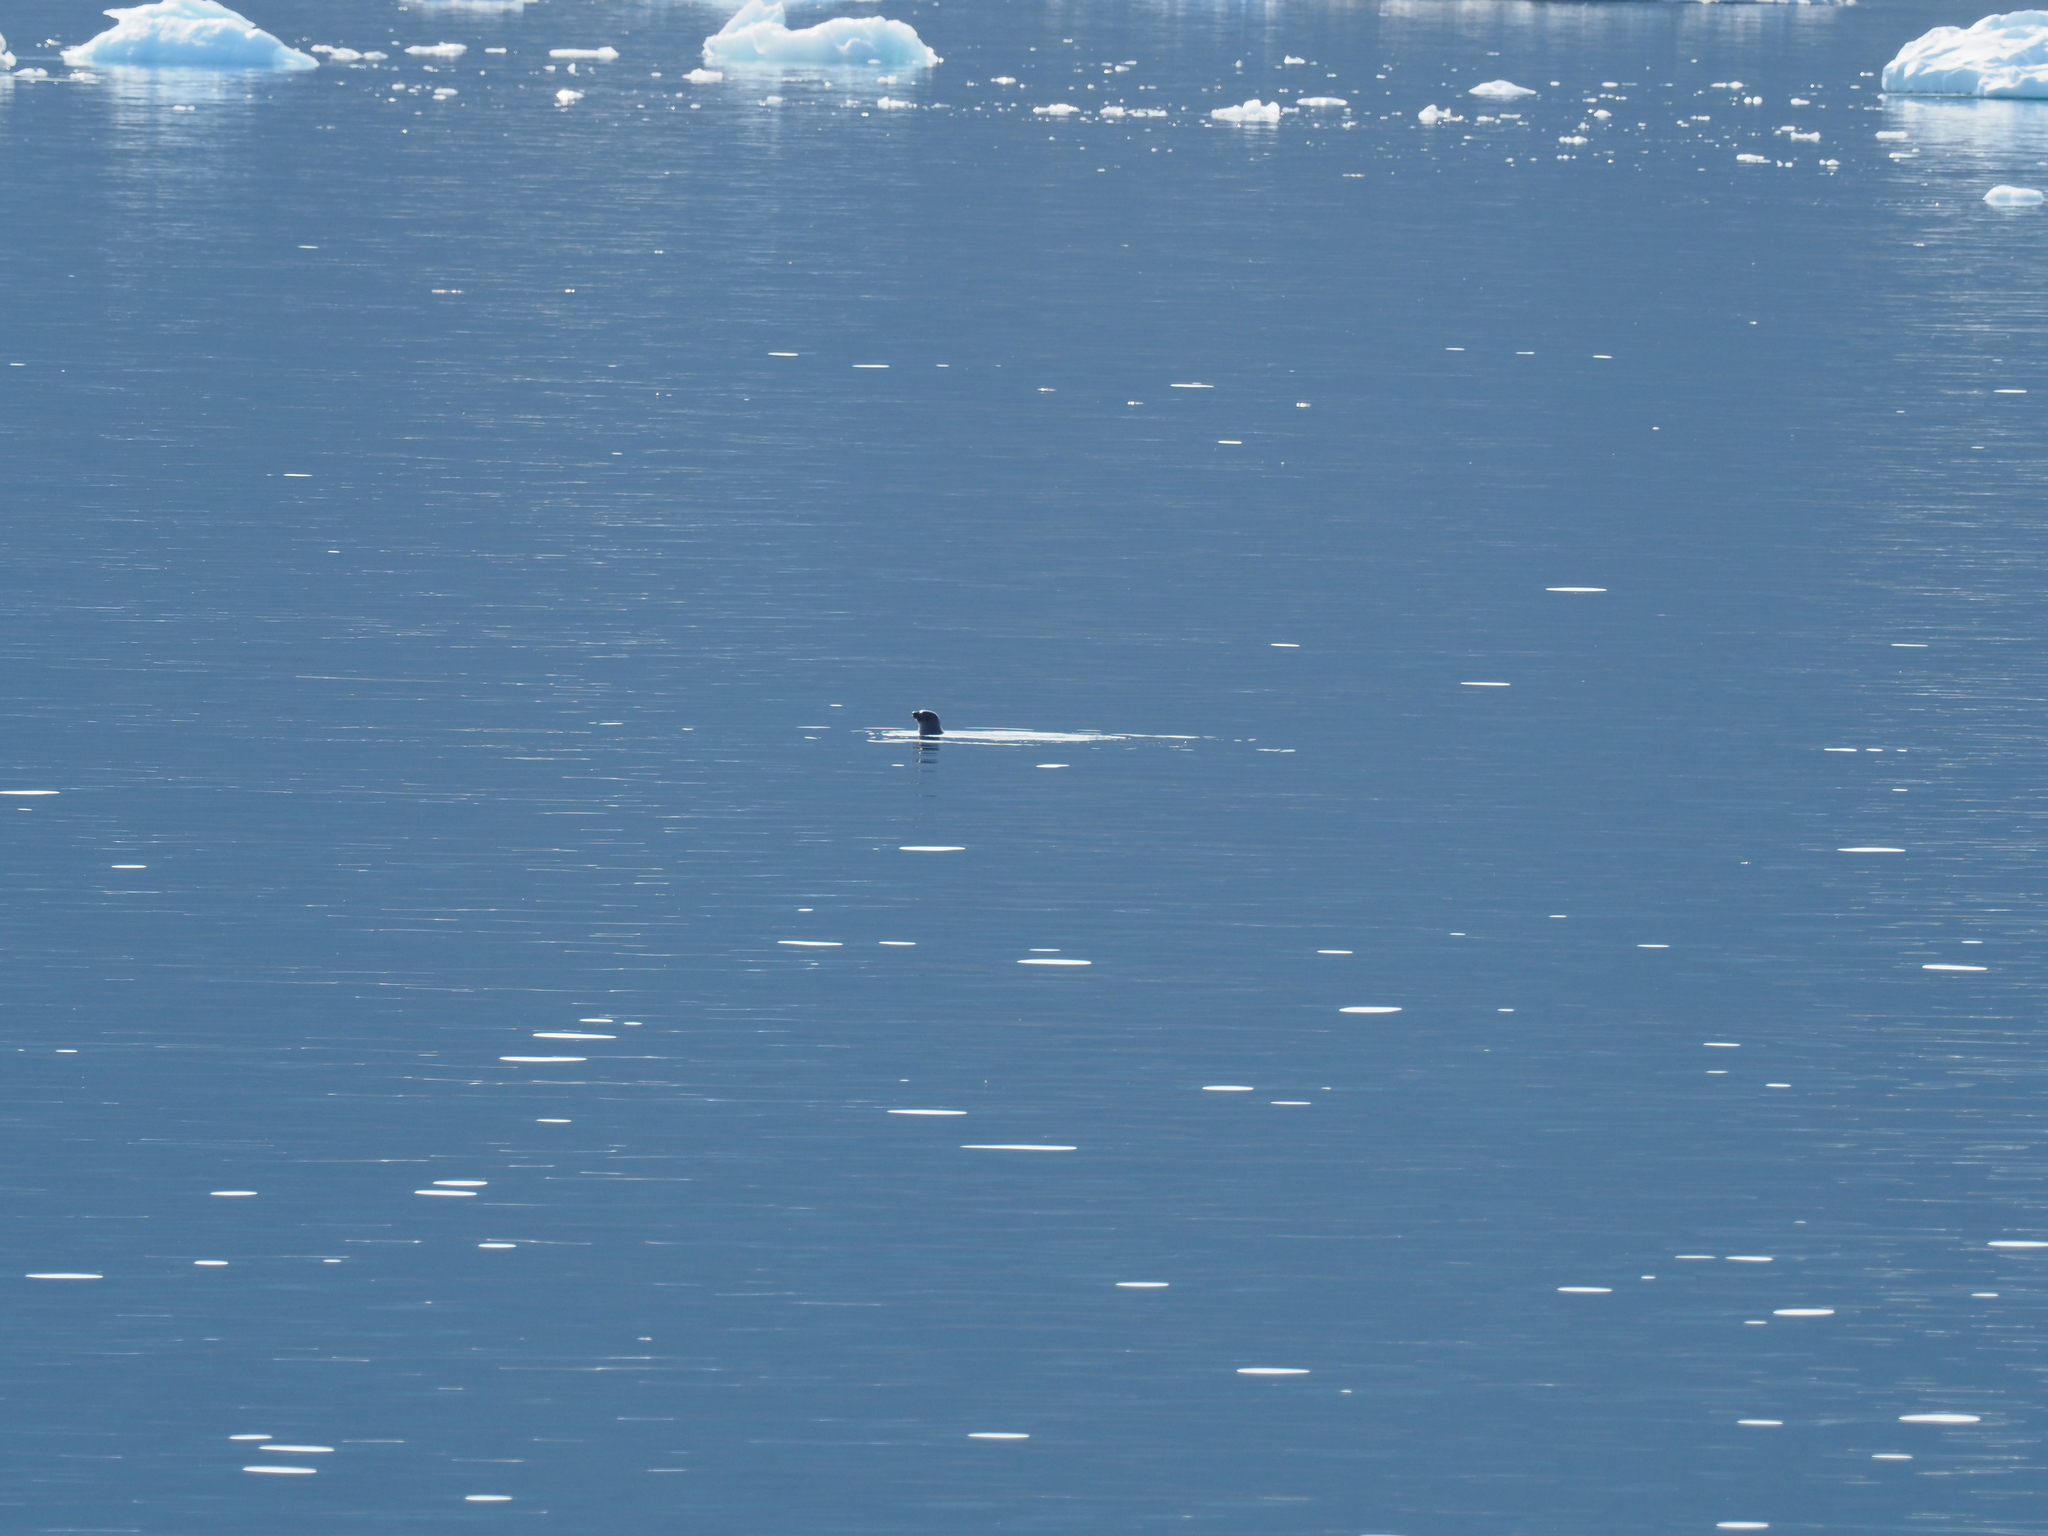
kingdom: Animalia
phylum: Chordata
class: Mammalia
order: Carnivora
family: Phocidae
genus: Pagophilus
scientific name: Pagophilus groenlandicus
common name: Harp seal
